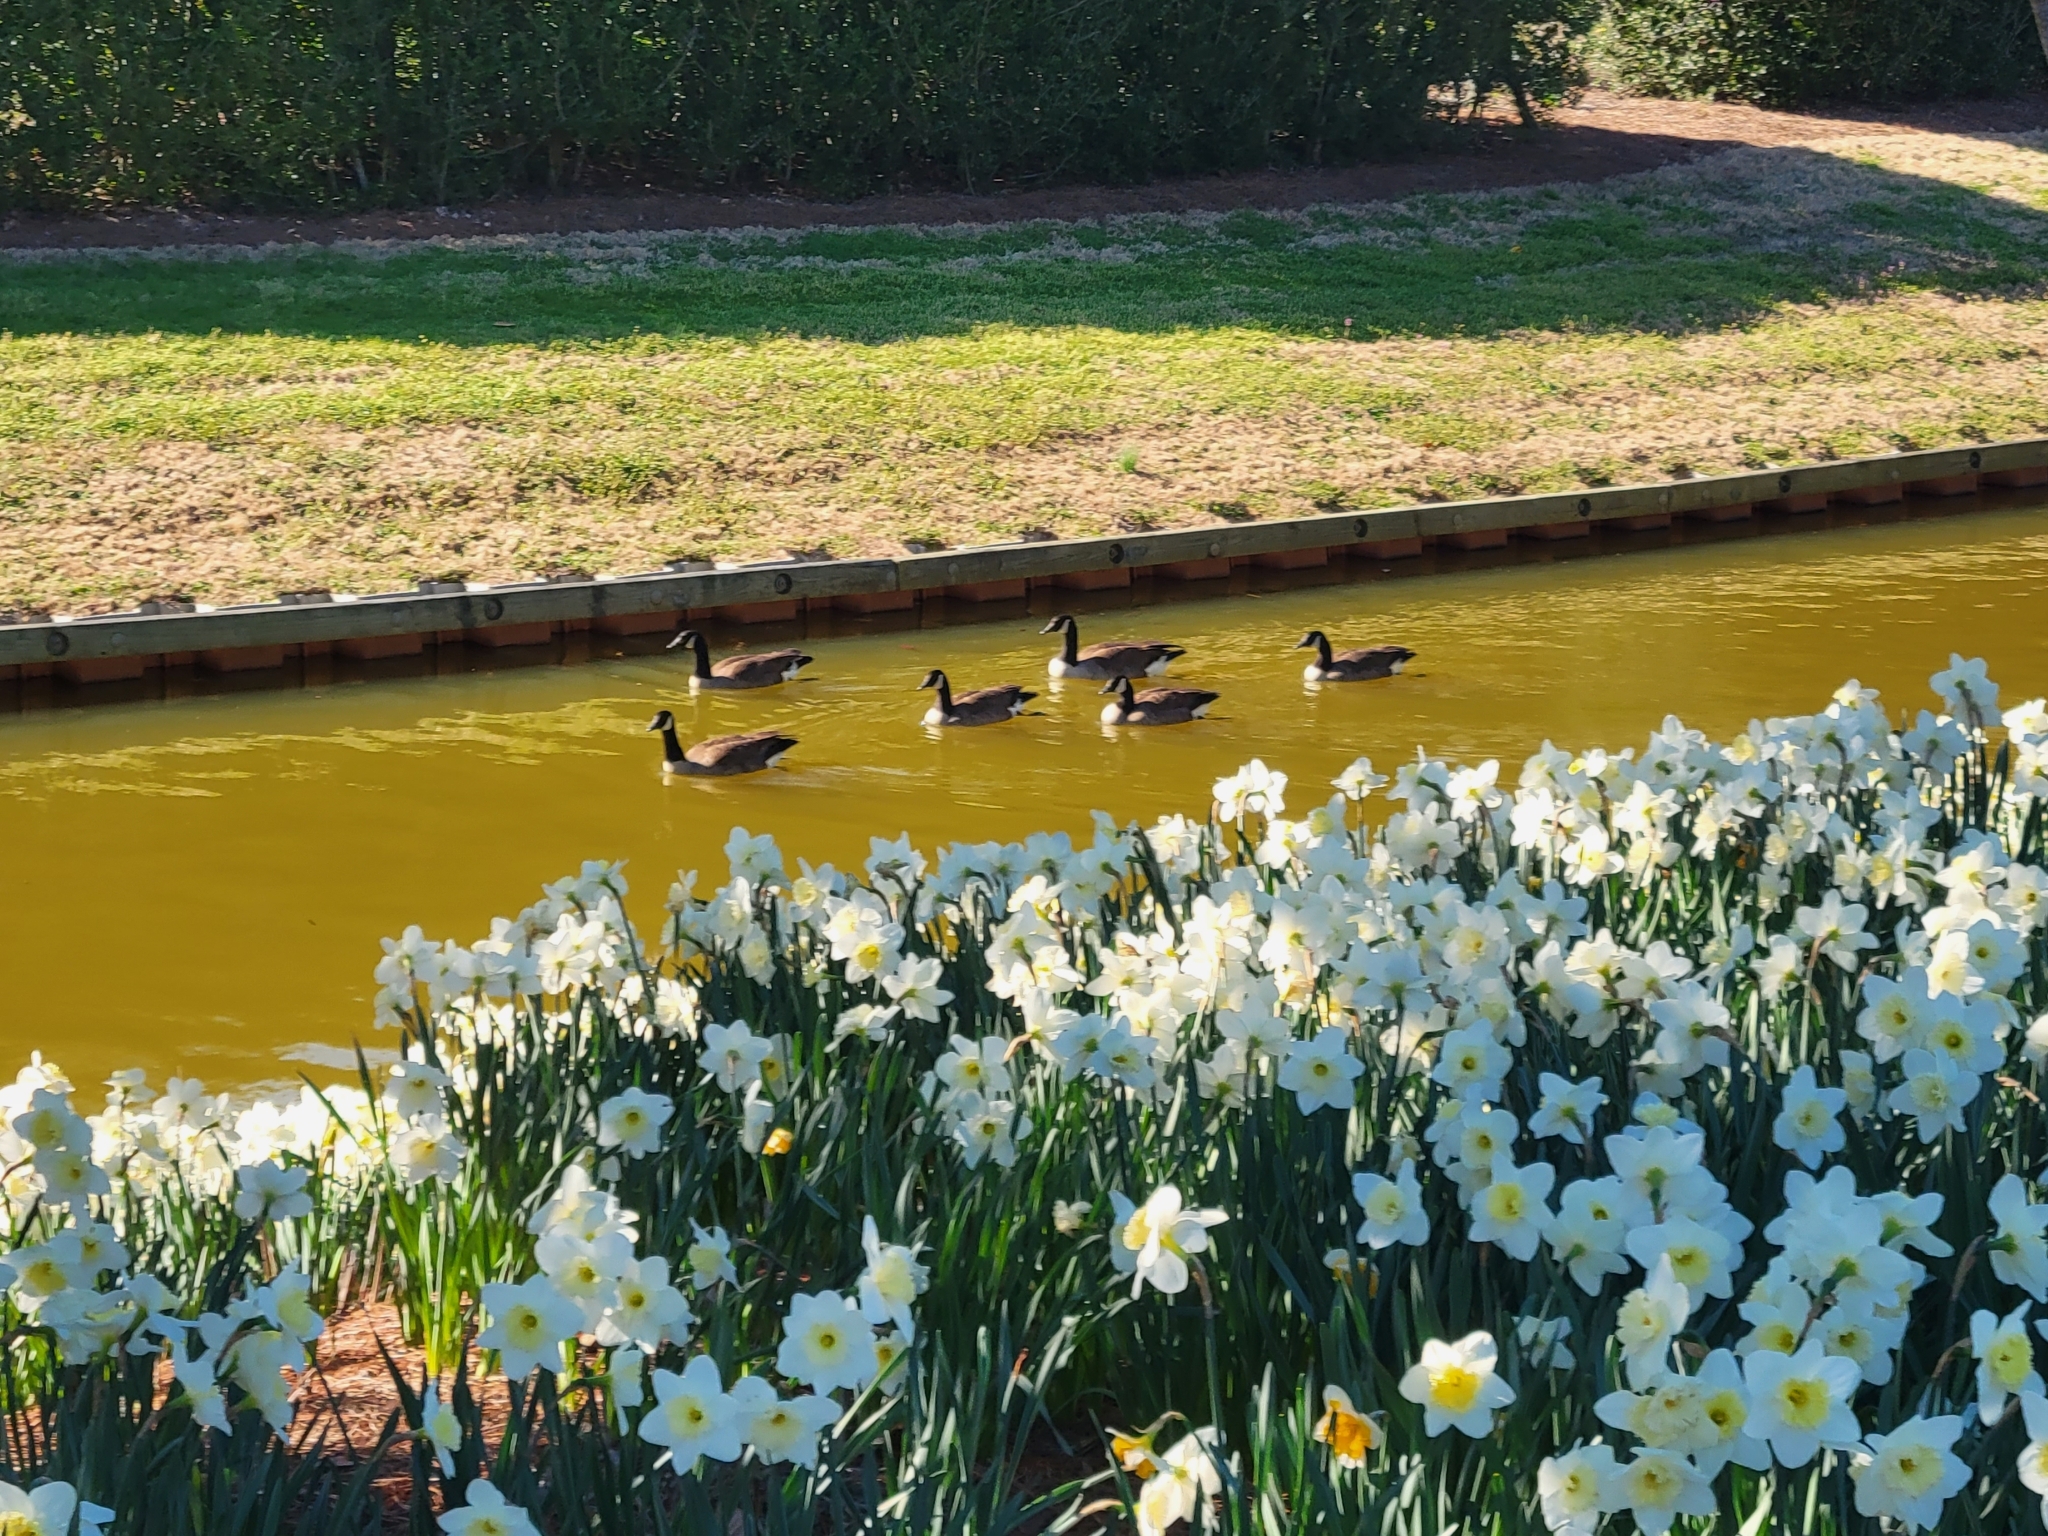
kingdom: Animalia
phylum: Chordata
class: Aves
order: Anseriformes
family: Anatidae
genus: Branta
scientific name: Branta canadensis
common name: Canada goose
